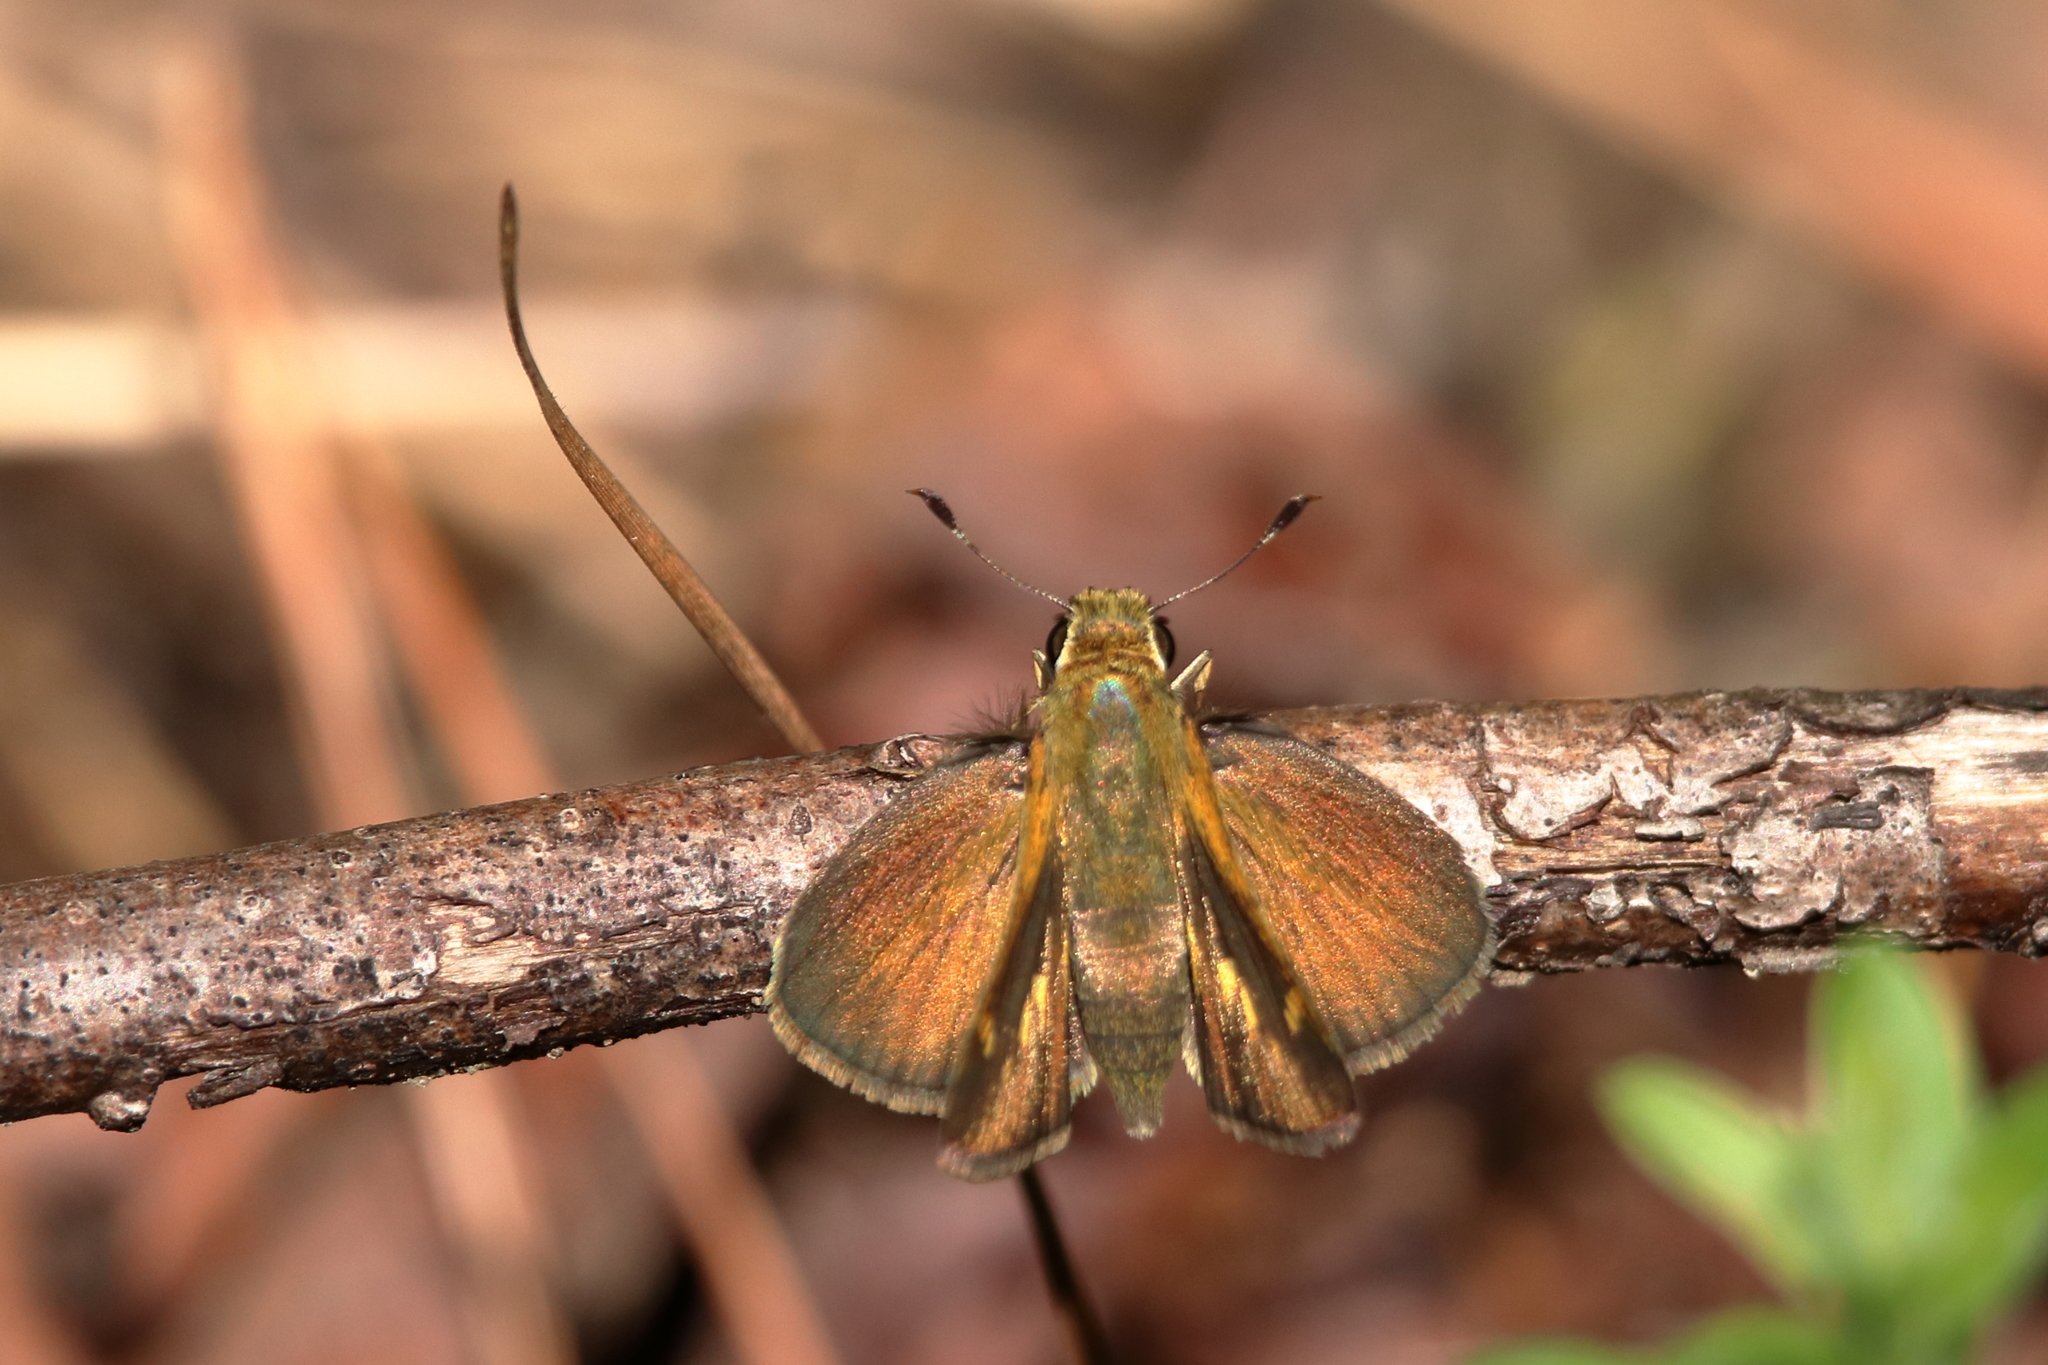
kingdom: Animalia
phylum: Arthropoda
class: Insecta
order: Lepidoptera
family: Hesperiidae
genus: Polites
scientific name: Polites vibex
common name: Whirlabout
